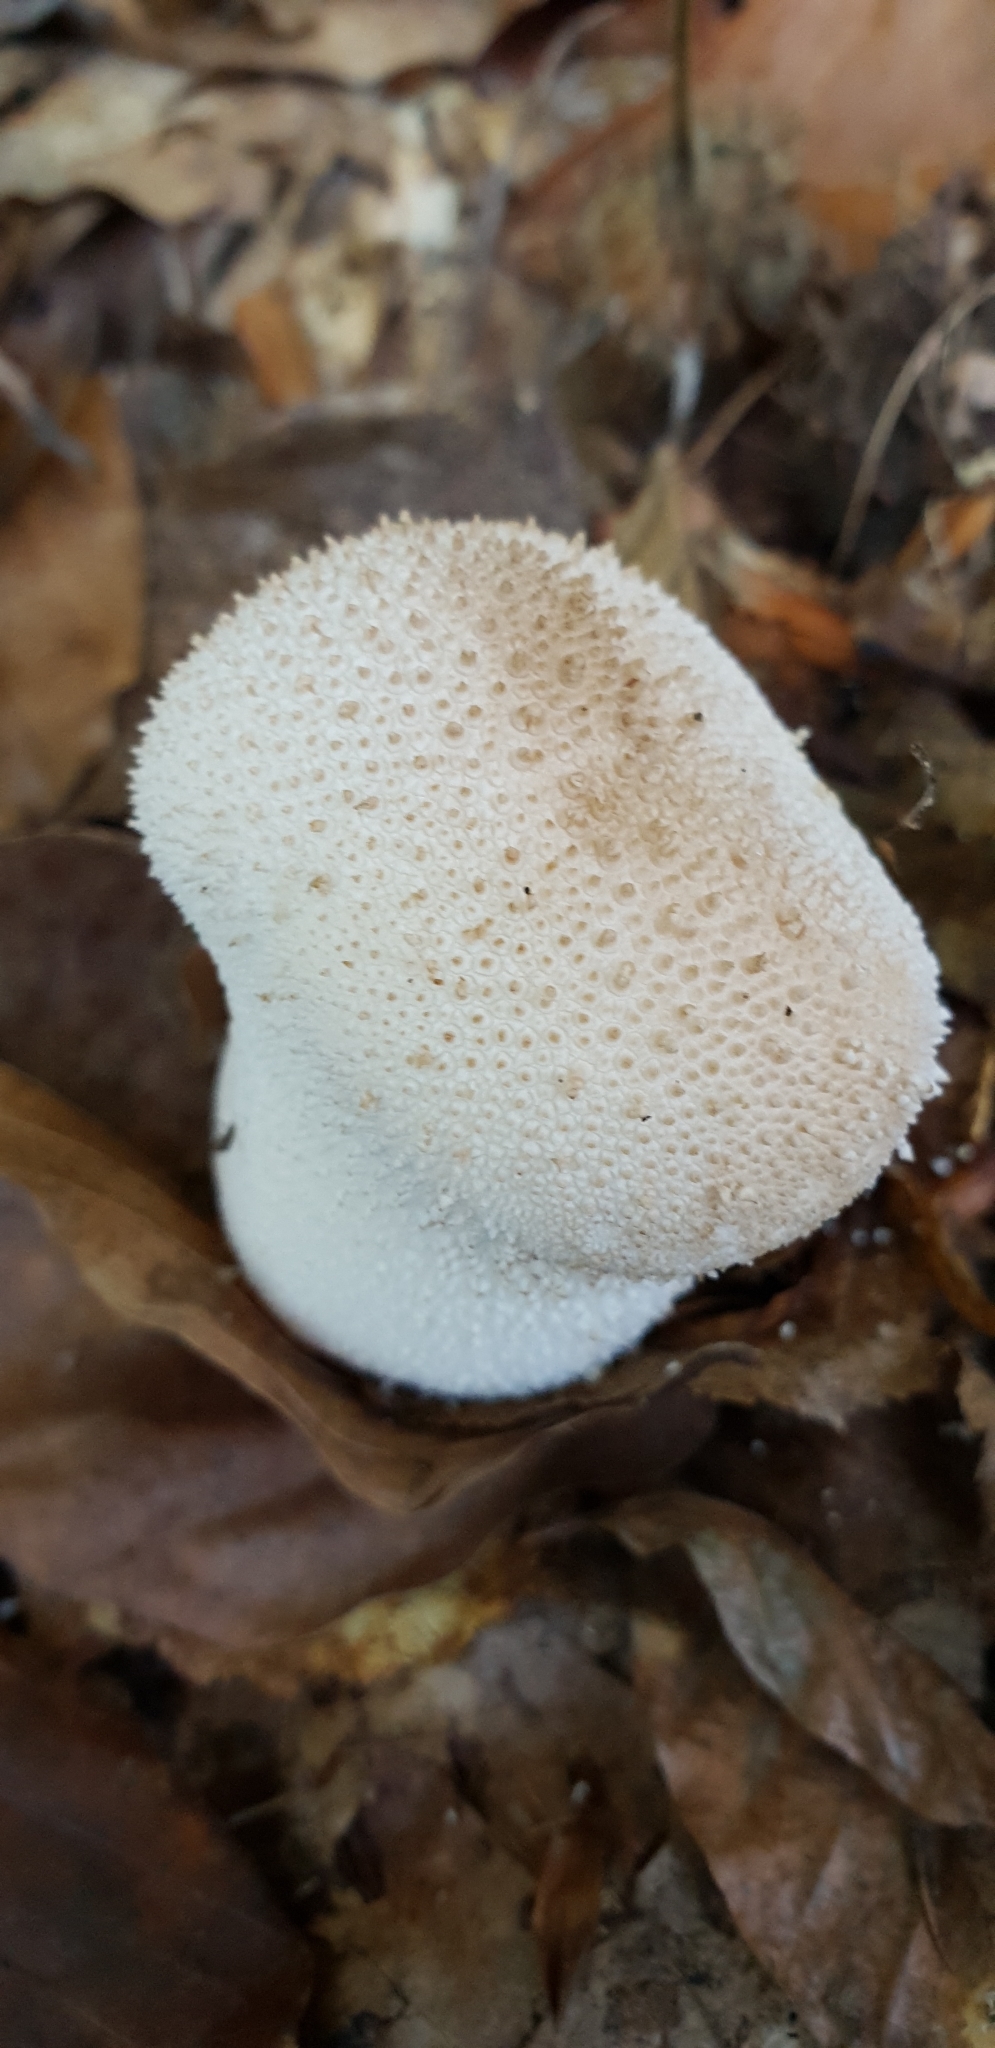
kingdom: Fungi
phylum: Basidiomycota
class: Agaricomycetes
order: Agaricales
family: Lycoperdaceae
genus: Lycoperdon
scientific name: Lycoperdon perlatum
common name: Common puffball
